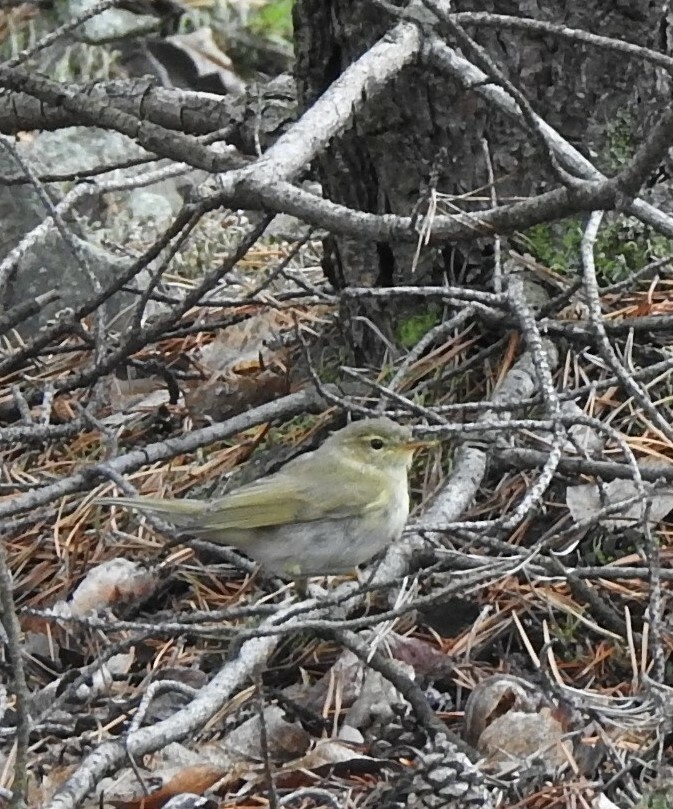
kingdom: Animalia
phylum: Chordata
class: Aves
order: Passeriformes
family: Phylloscopidae
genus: Phylloscopus
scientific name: Phylloscopus trochilus
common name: Willow warbler
